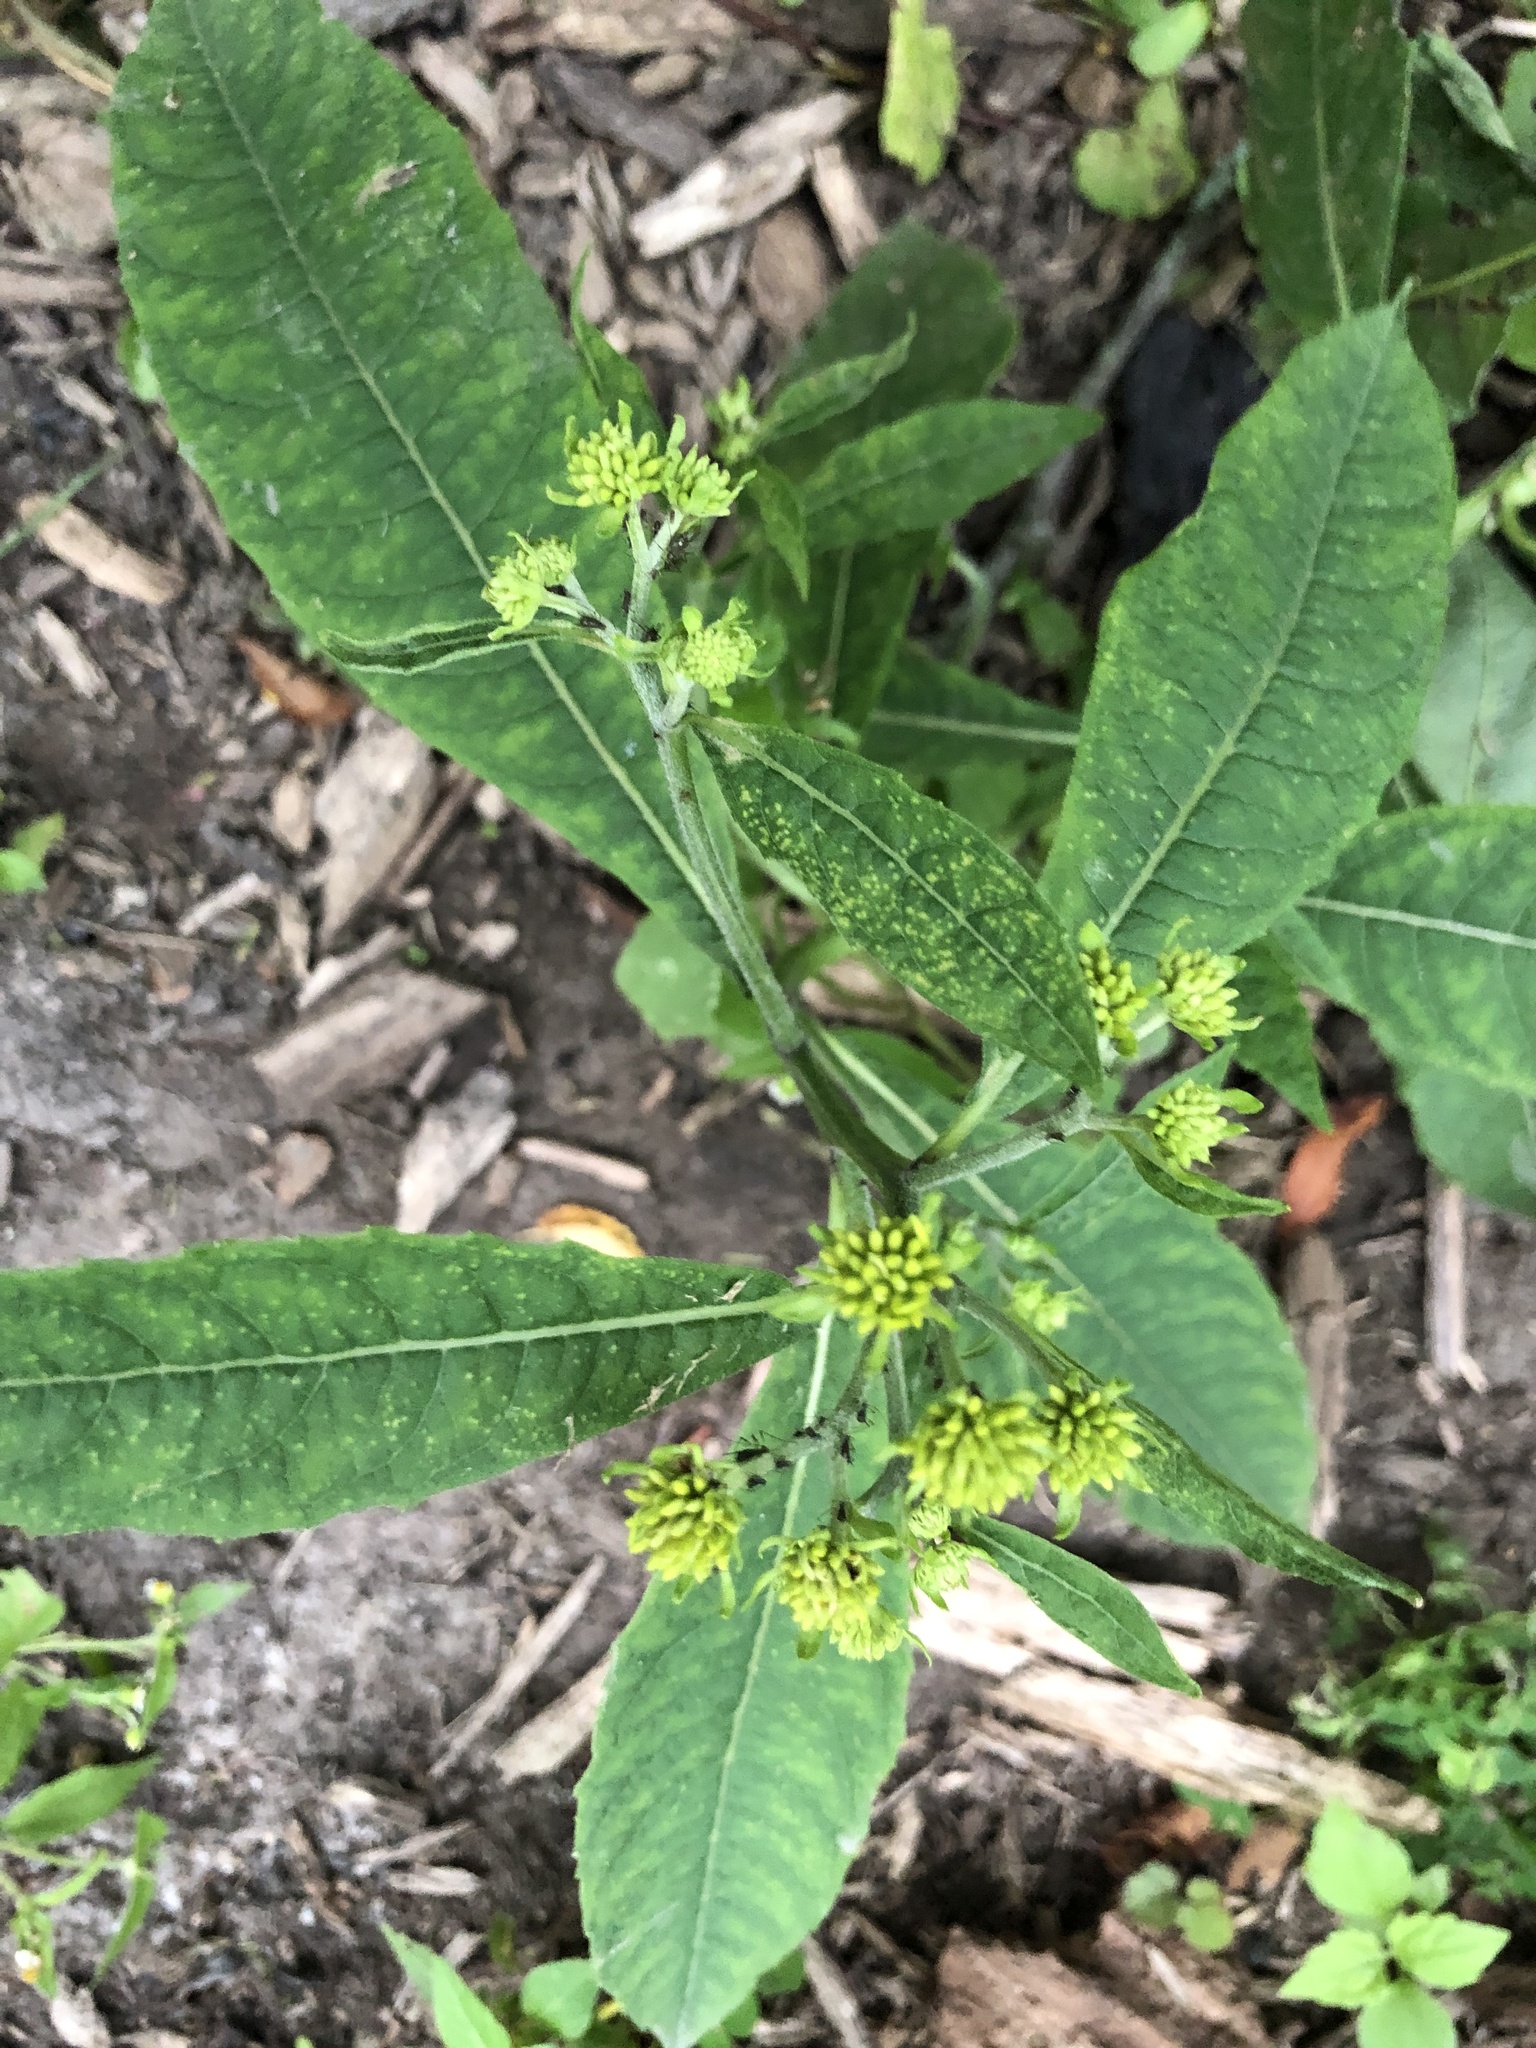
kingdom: Plantae
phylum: Tracheophyta
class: Magnoliopsida
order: Asterales
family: Asteraceae
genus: Verbesina
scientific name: Verbesina alternifolia
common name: Wingstem
